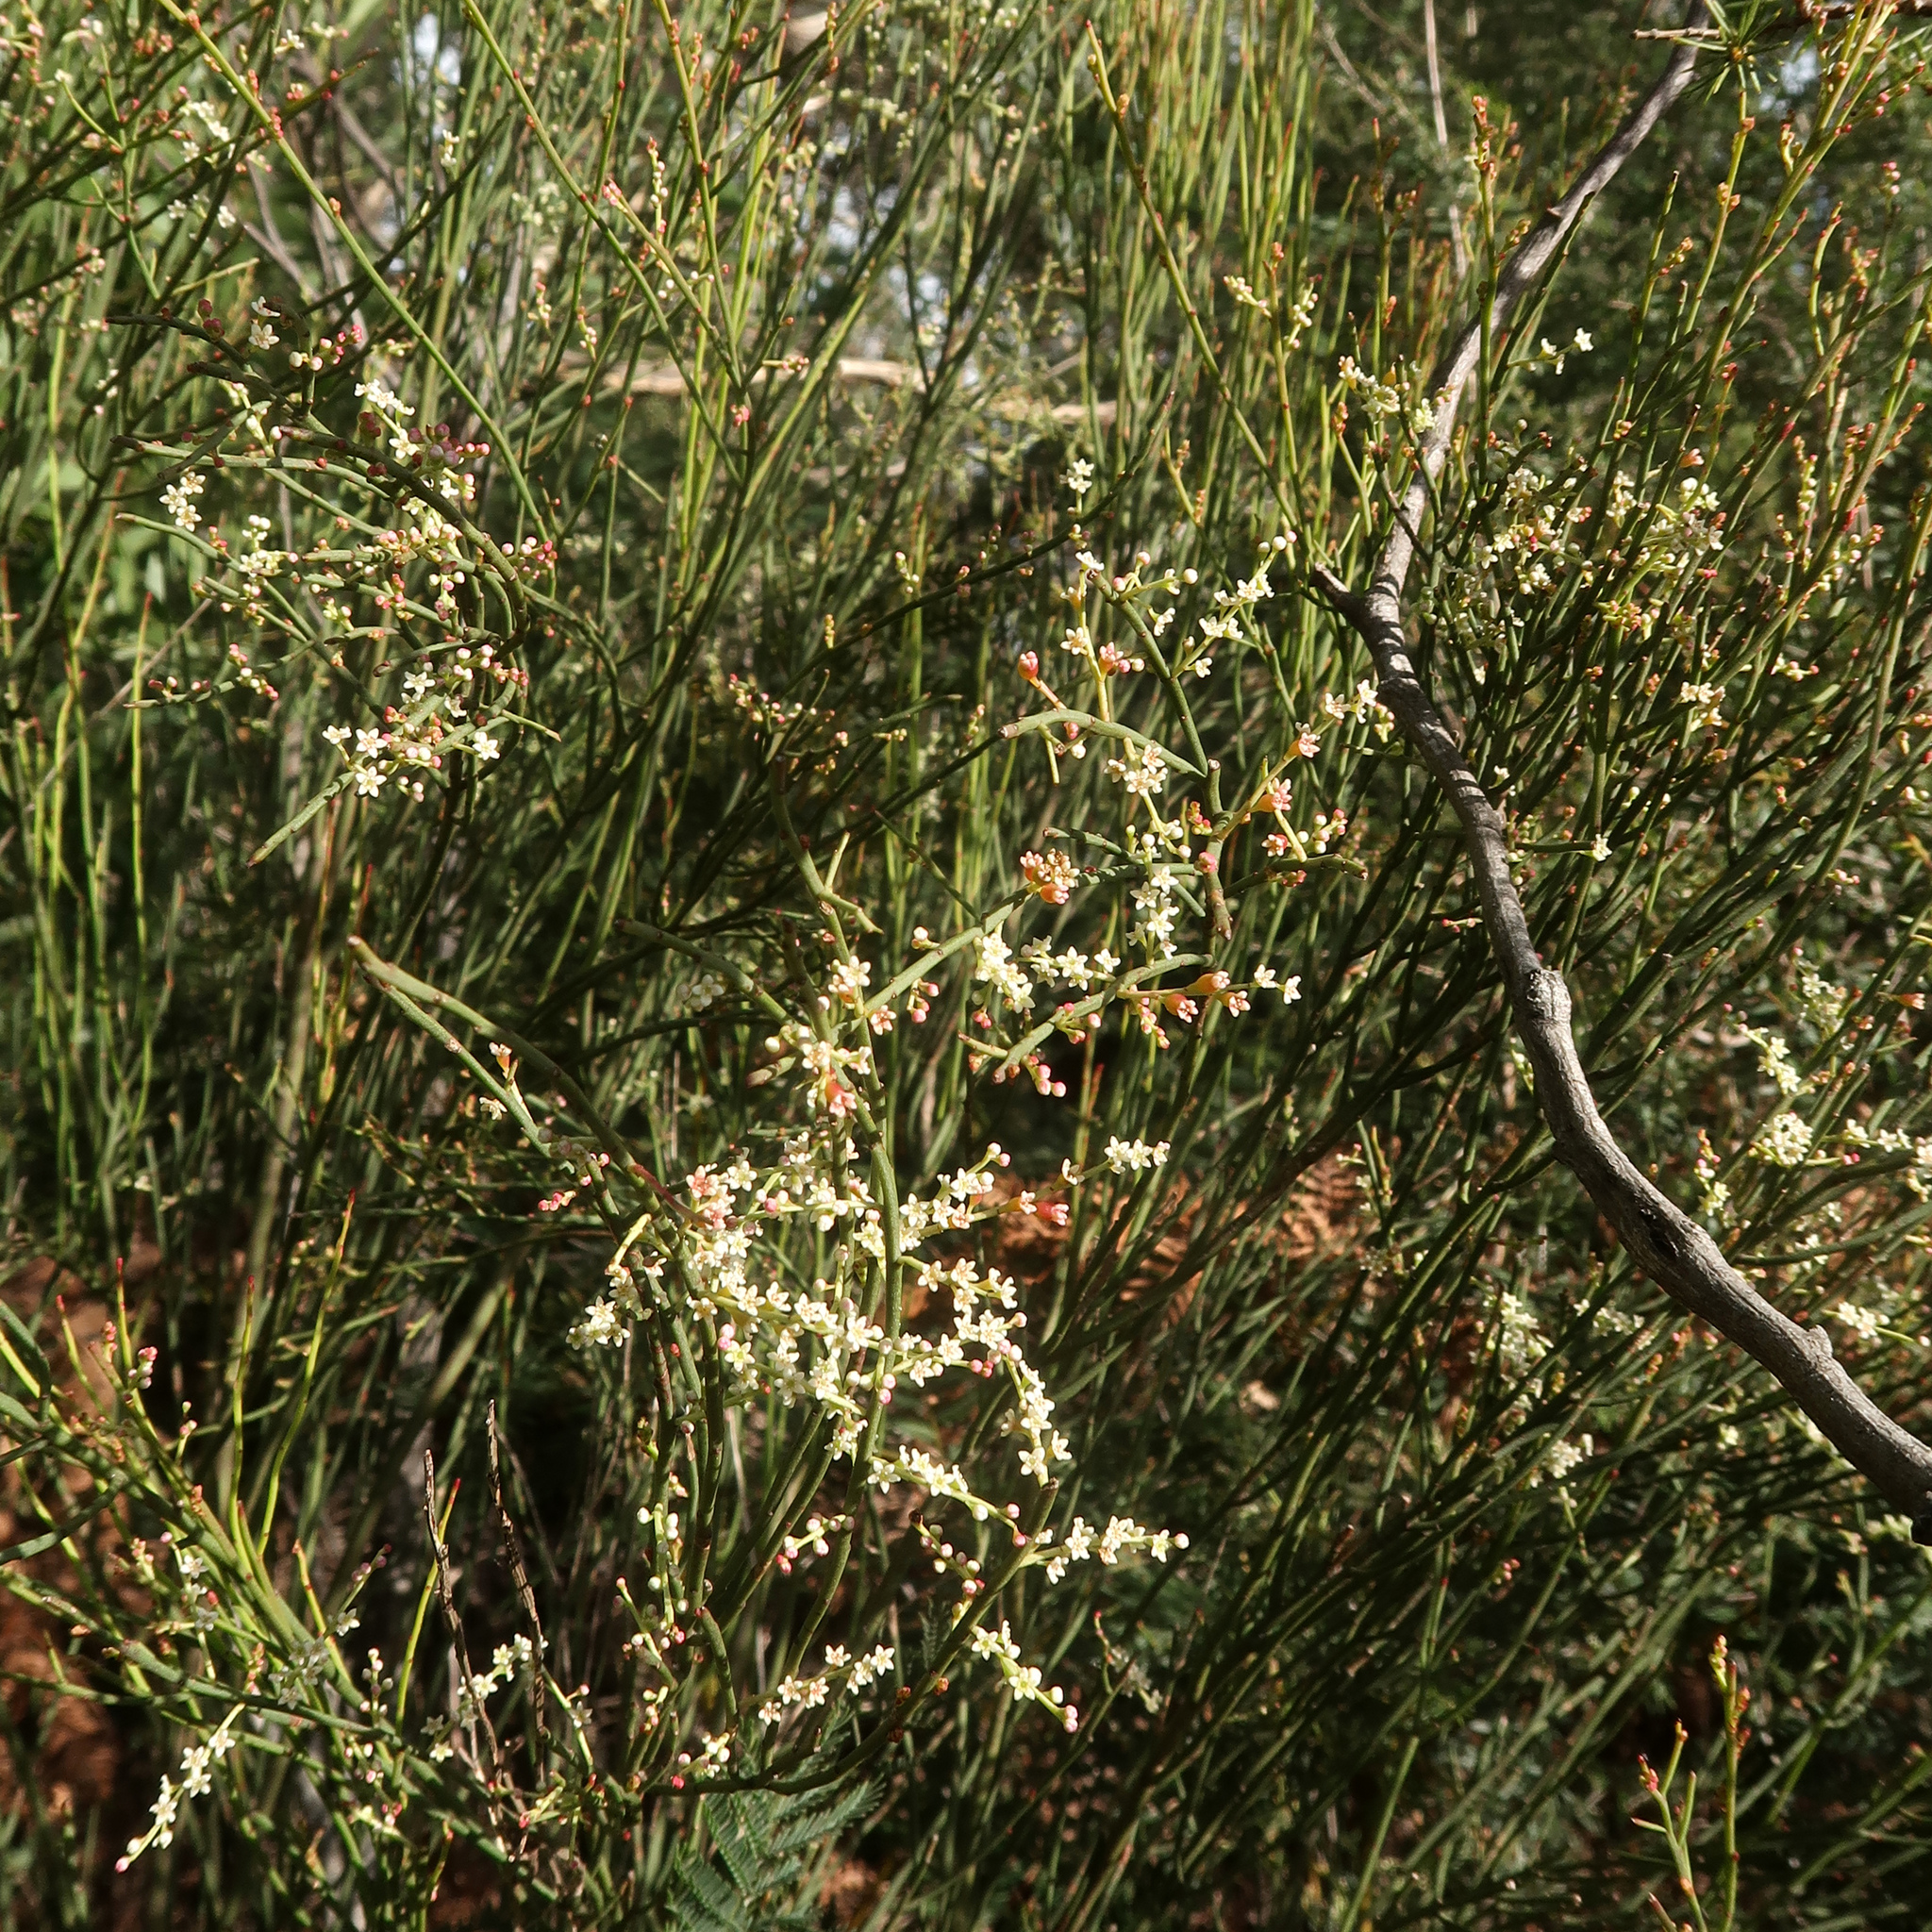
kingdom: Plantae
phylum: Tracheophyta
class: Magnoliopsida
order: Santalales
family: Amphorogynaceae
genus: Leptomeria
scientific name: Leptomeria drupacea
